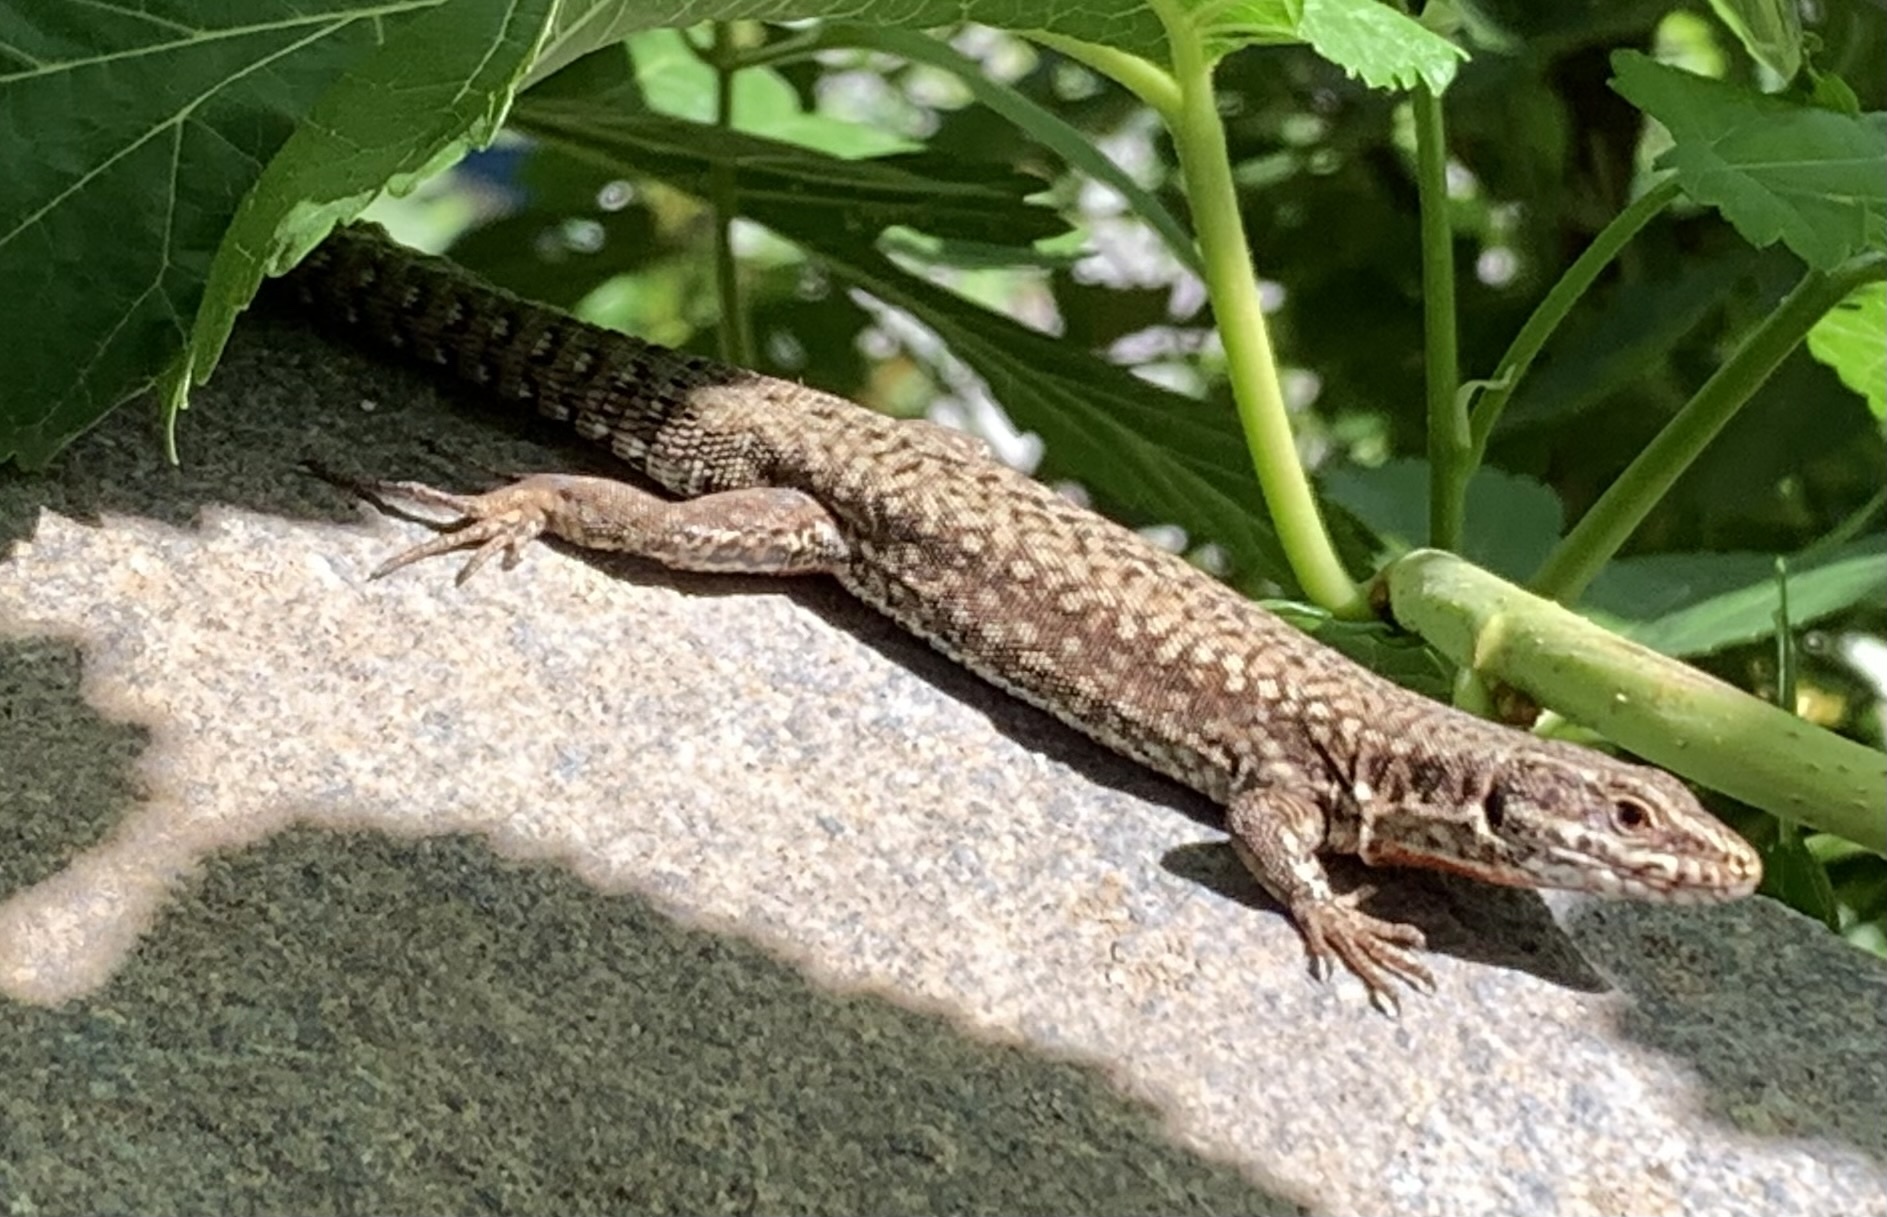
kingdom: Animalia
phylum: Chordata
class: Squamata
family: Lacertidae
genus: Podarcis
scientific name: Podarcis muralis
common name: Common wall lizard
